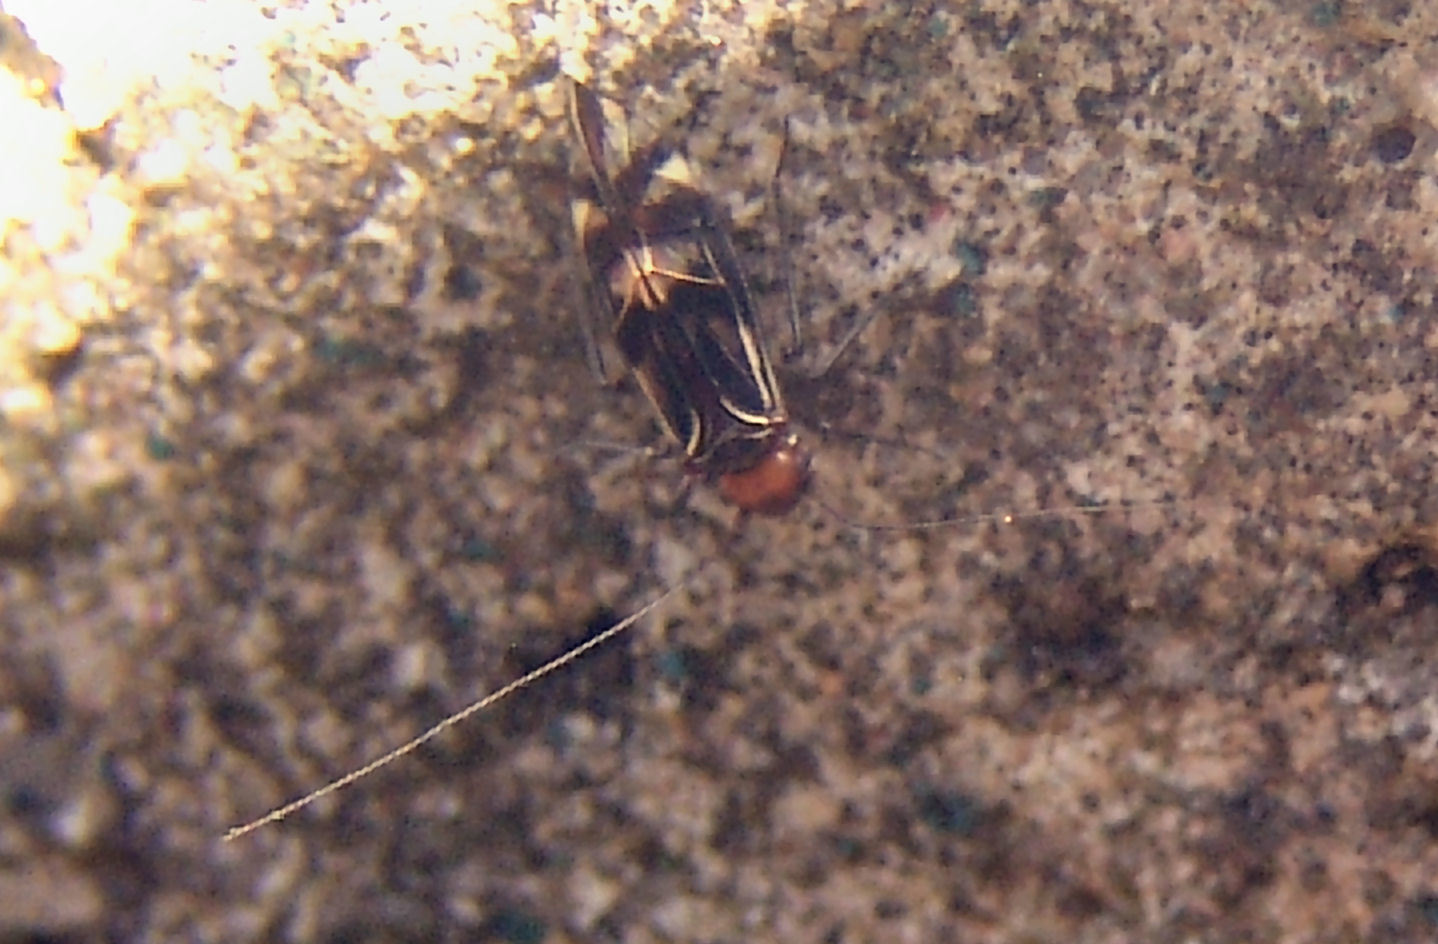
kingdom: Animalia
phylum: Arthropoda
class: Insecta
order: Psocodea
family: Psocidae
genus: Cerastipsocus
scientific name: Cerastipsocus trifasciatus
